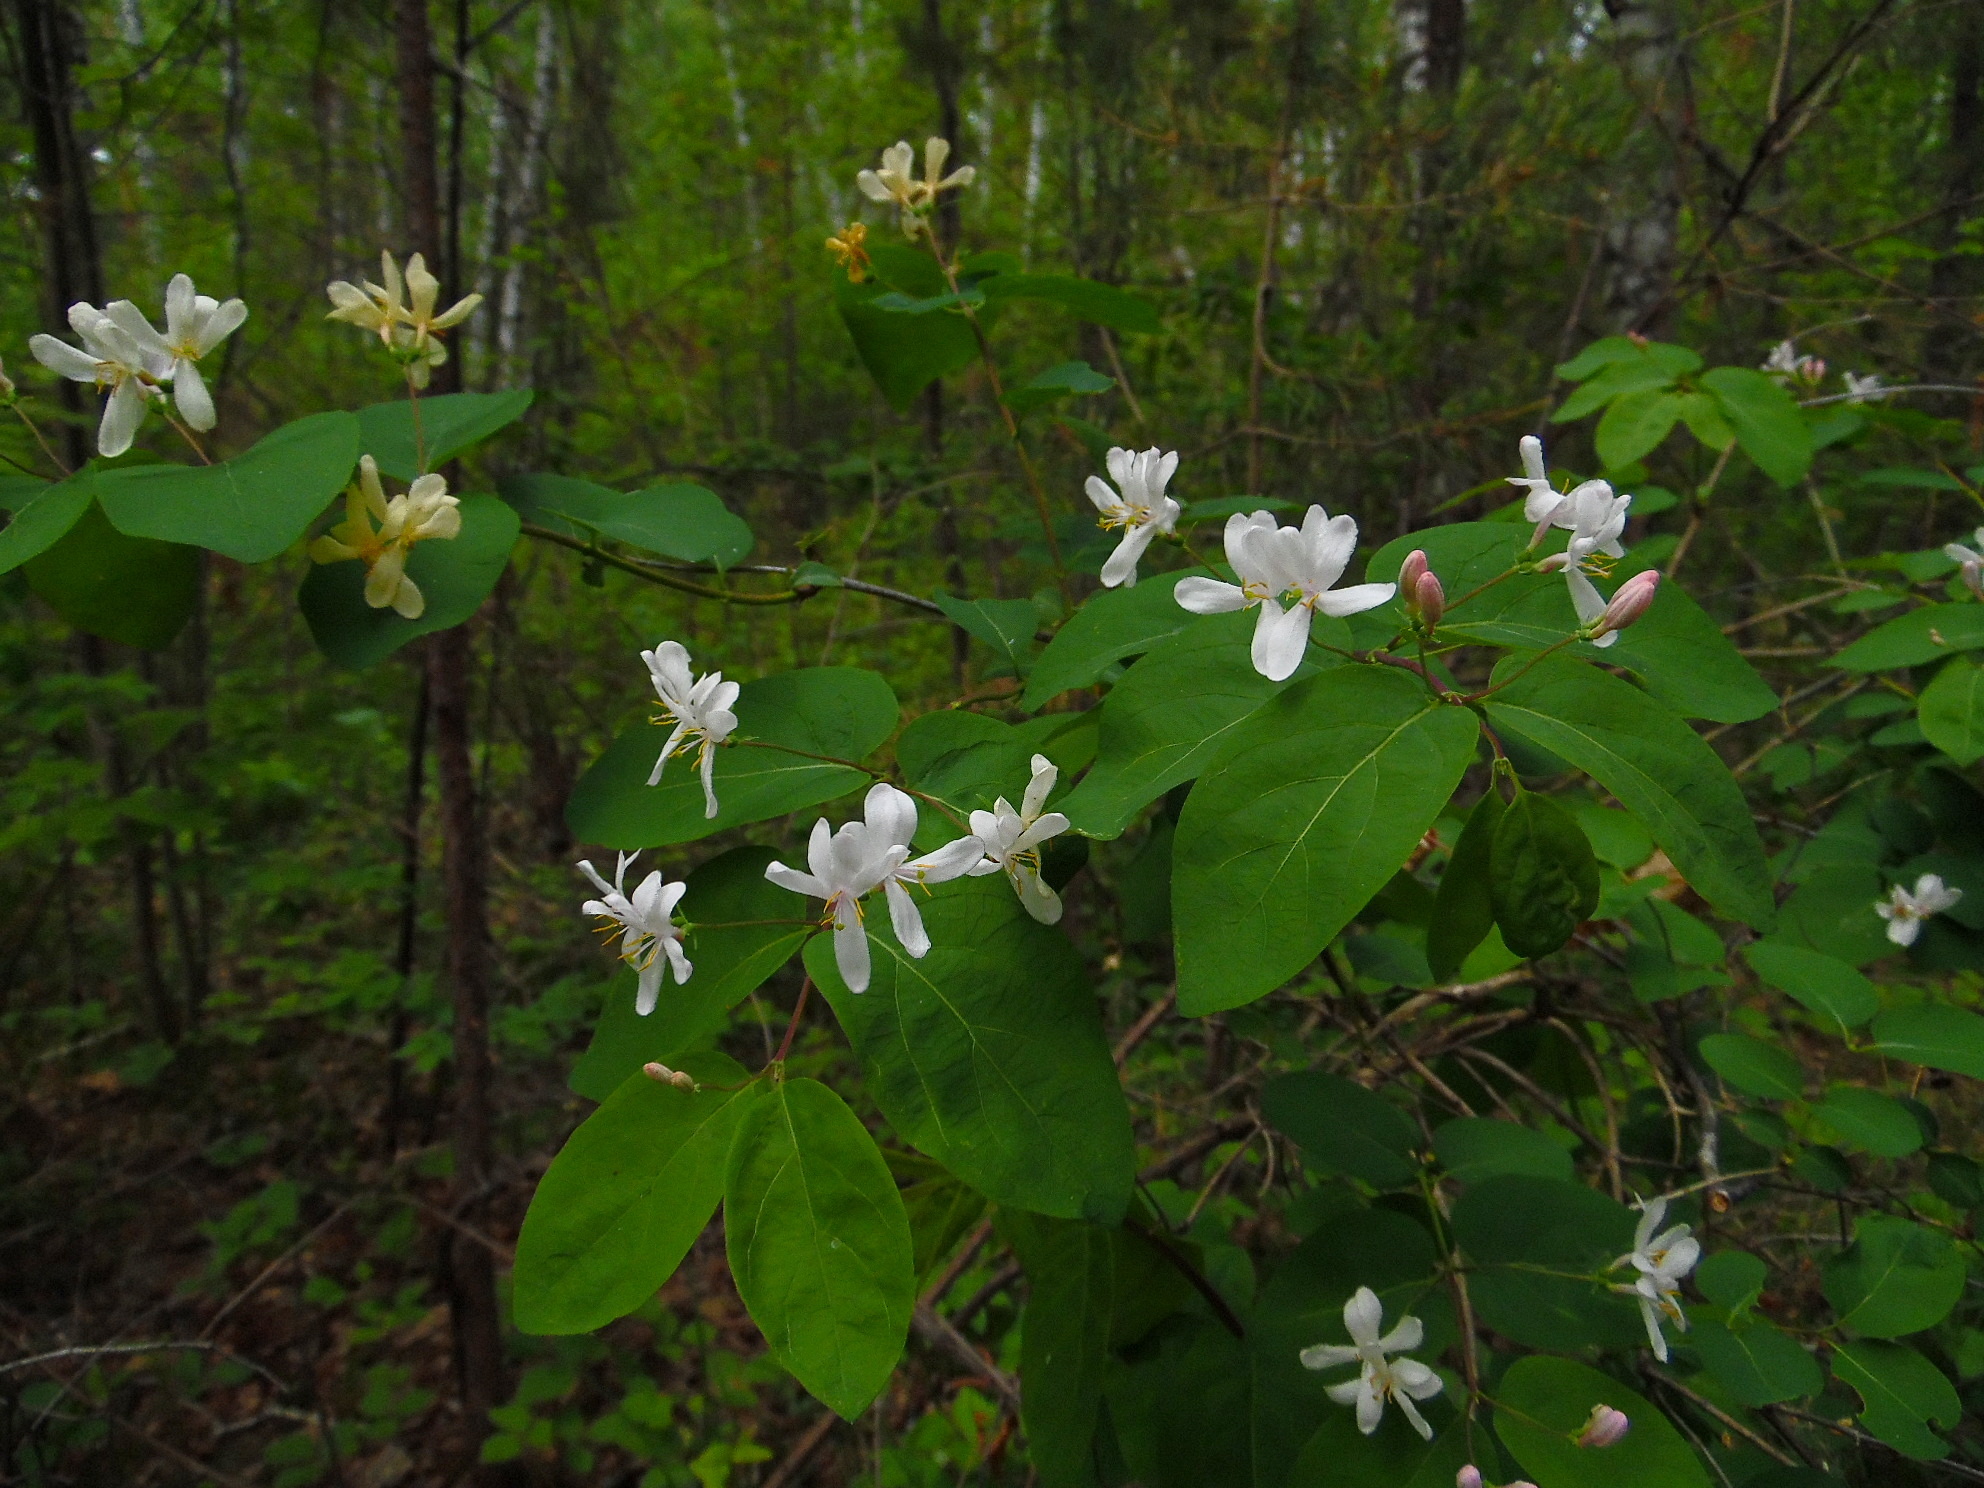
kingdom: Plantae
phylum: Tracheophyta
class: Magnoliopsida
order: Dipsacales
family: Caprifoliaceae
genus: Lonicera
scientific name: Lonicera tatarica
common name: Tatarian honeysuckle
